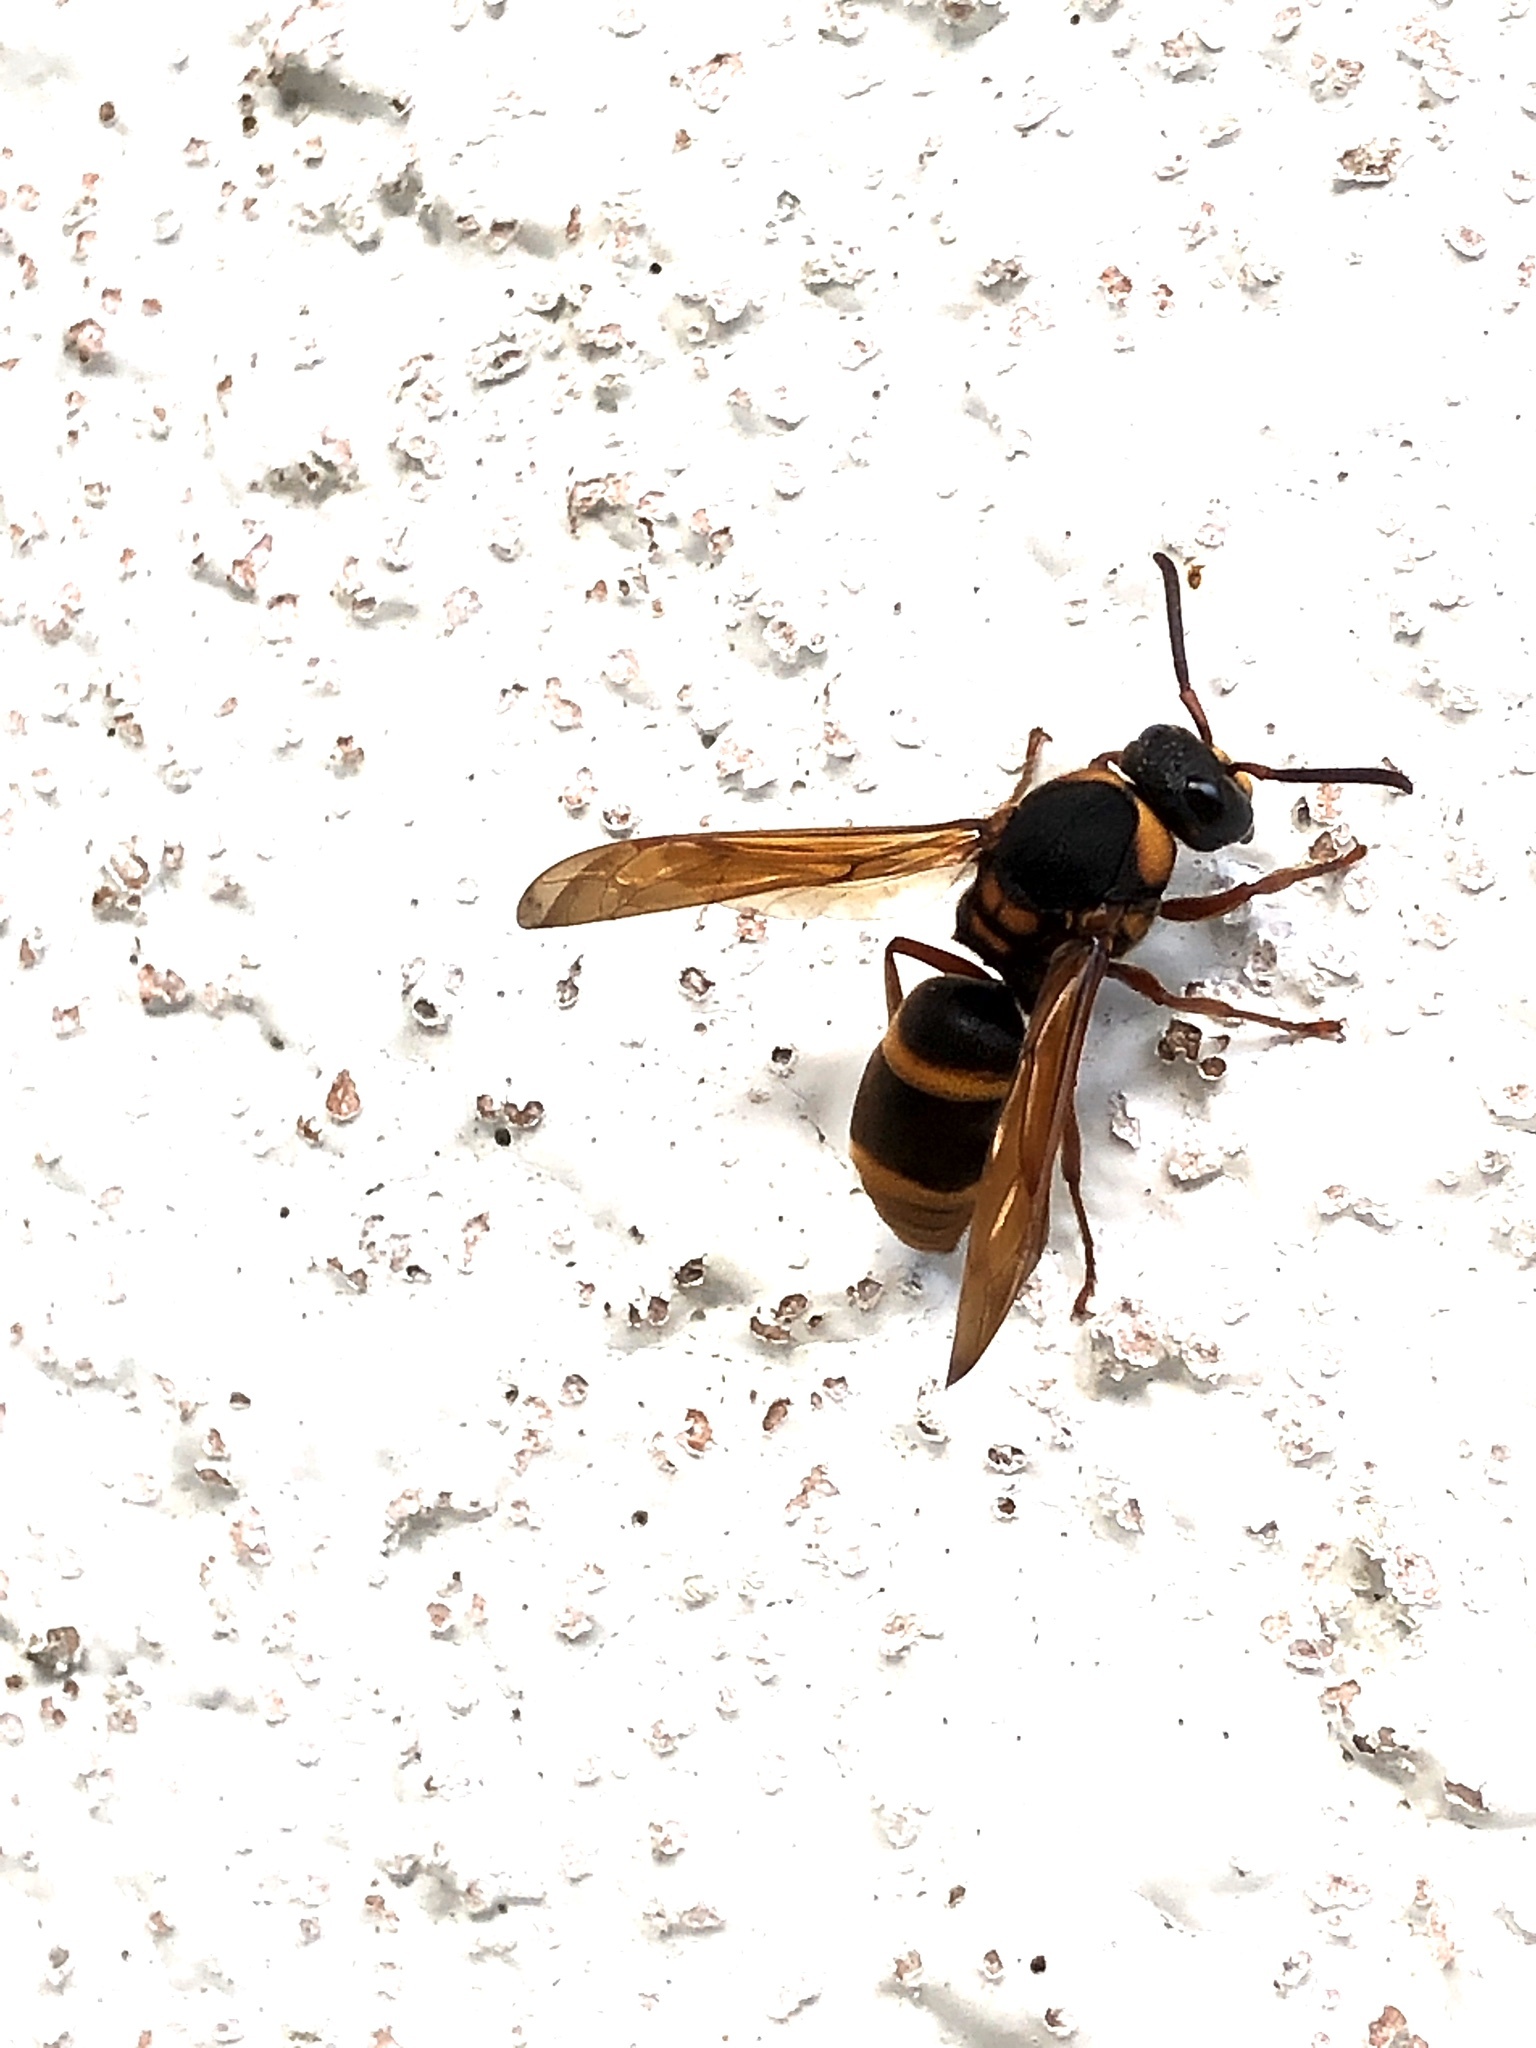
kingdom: Animalia
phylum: Arthropoda
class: Insecta
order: Hymenoptera
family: Eumenidae
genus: Anterhynchium
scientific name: Anterhynchium flavomarginatum
